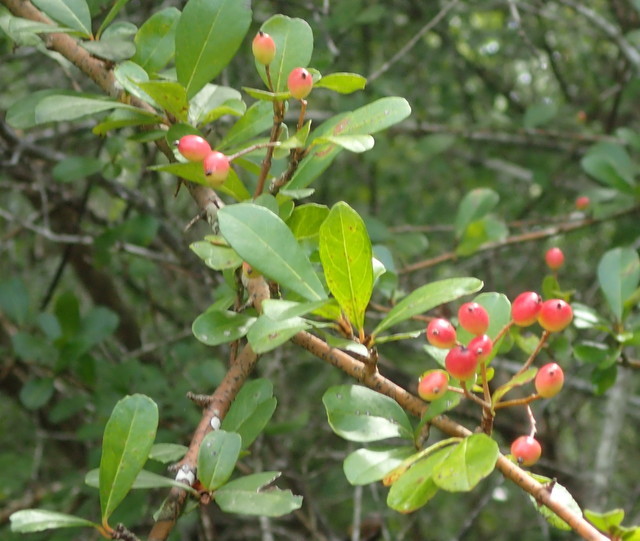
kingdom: Plantae
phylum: Tracheophyta
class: Magnoliopsida
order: Dipsacales
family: Viburnaceae
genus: Viburnum
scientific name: Viburnum obovatum
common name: Walter's viburnum
